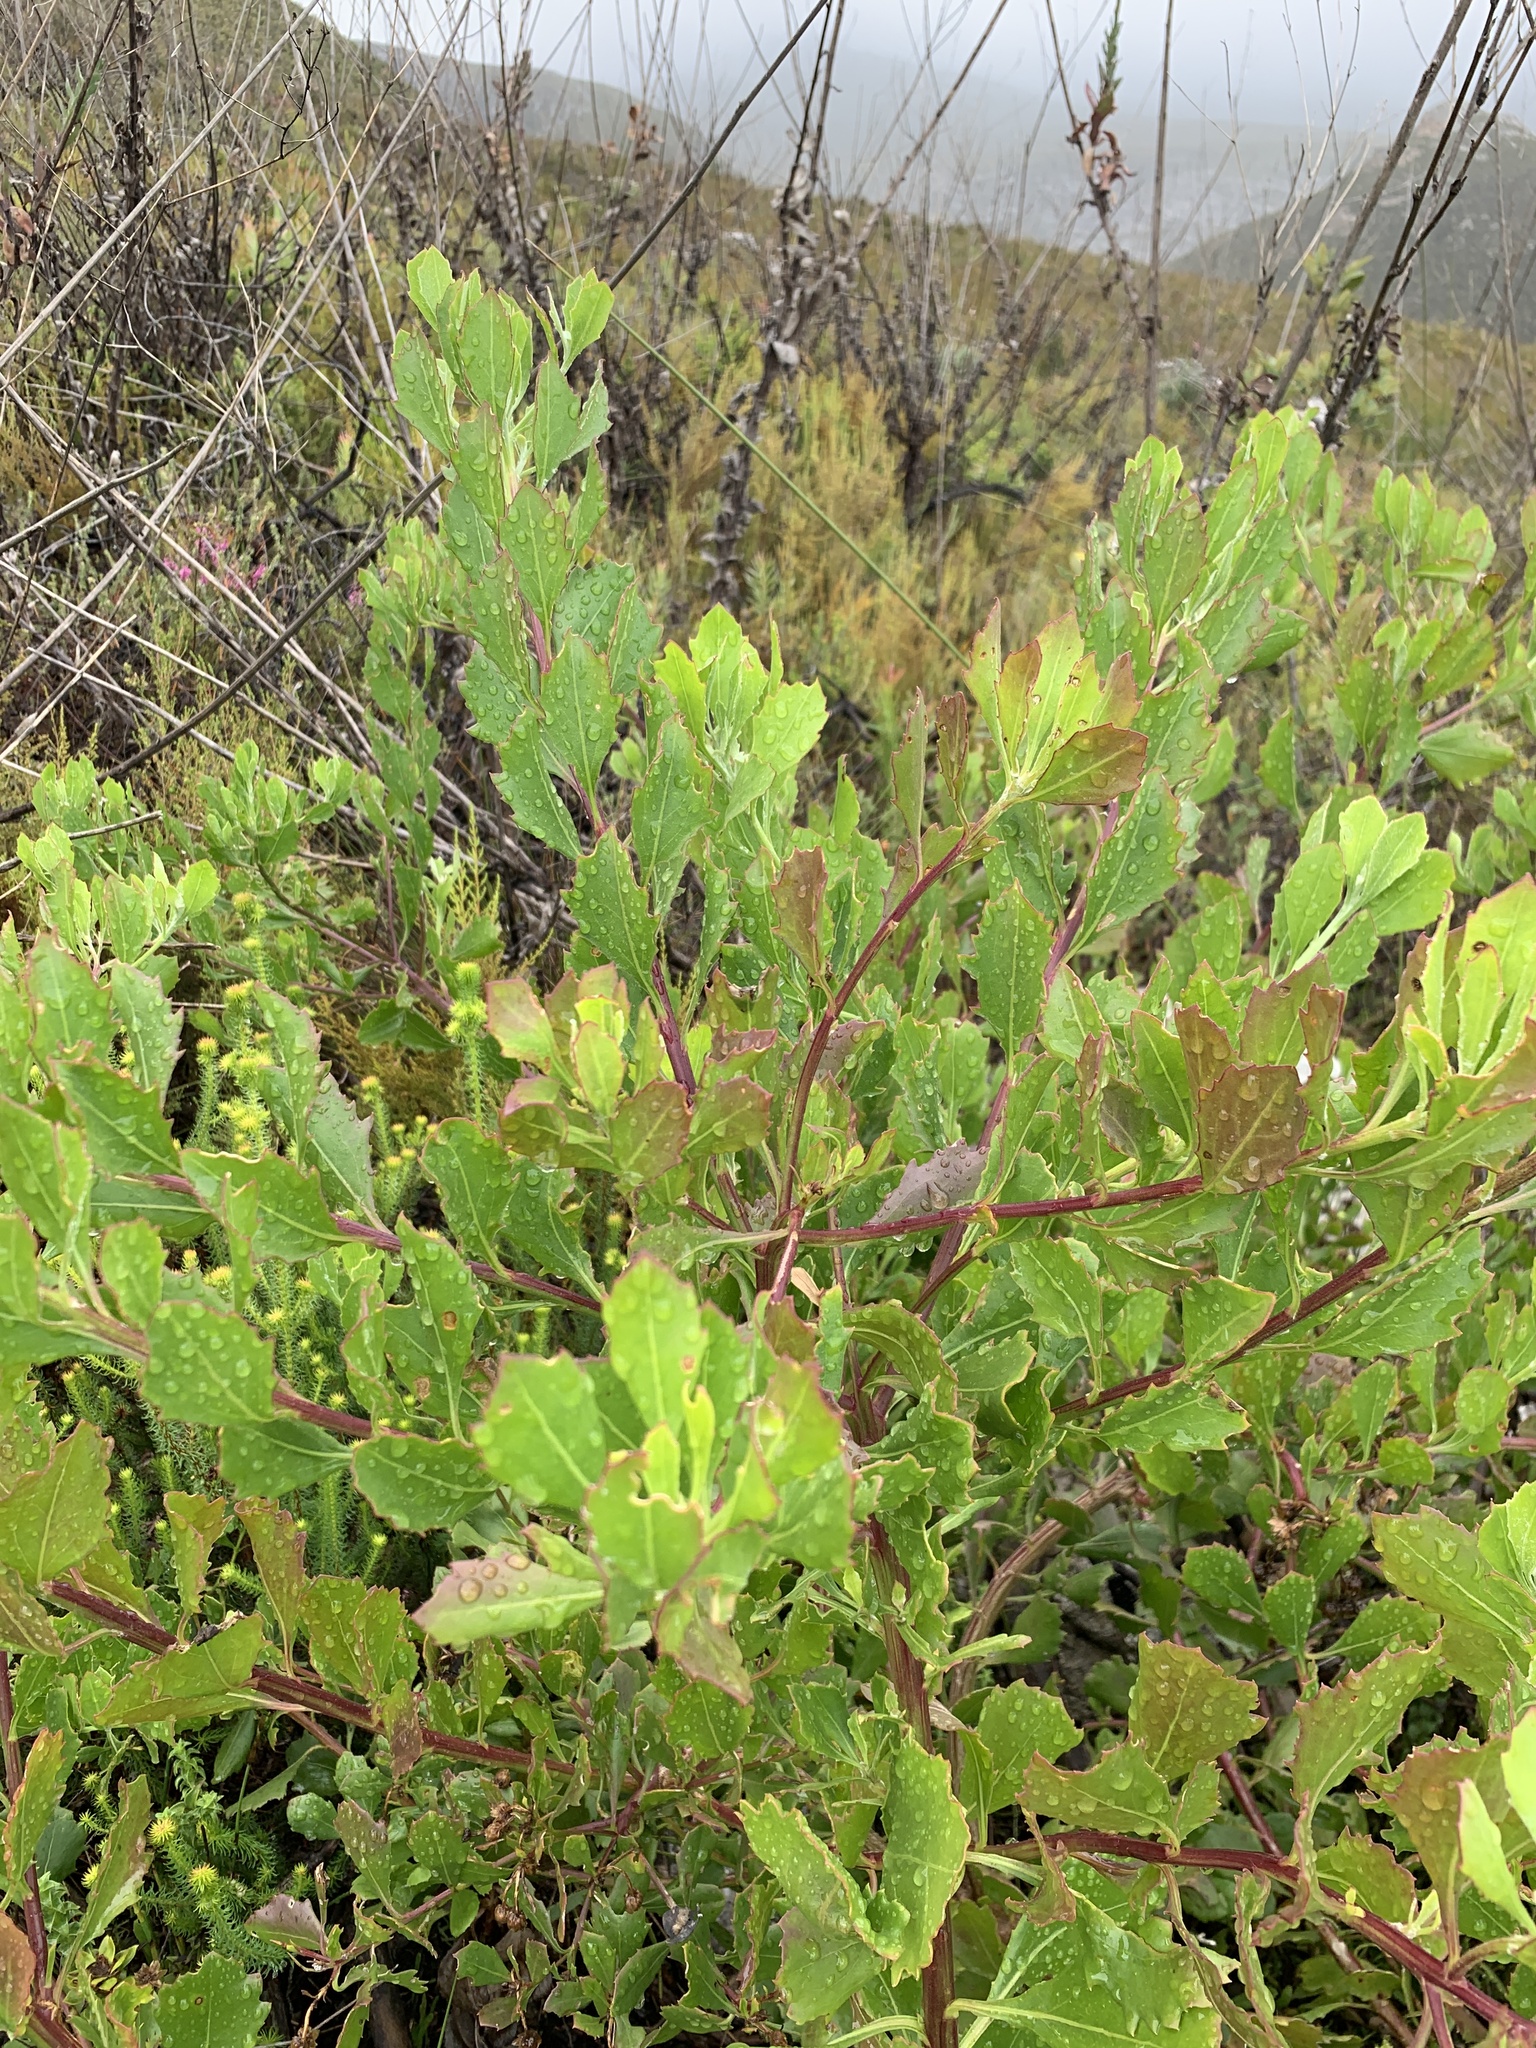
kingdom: Plantae
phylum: Tracheophyta
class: Magnoliopsida
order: Asterales
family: Asteraceae
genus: Osteospermum
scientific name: Osteospermum moniliferum
